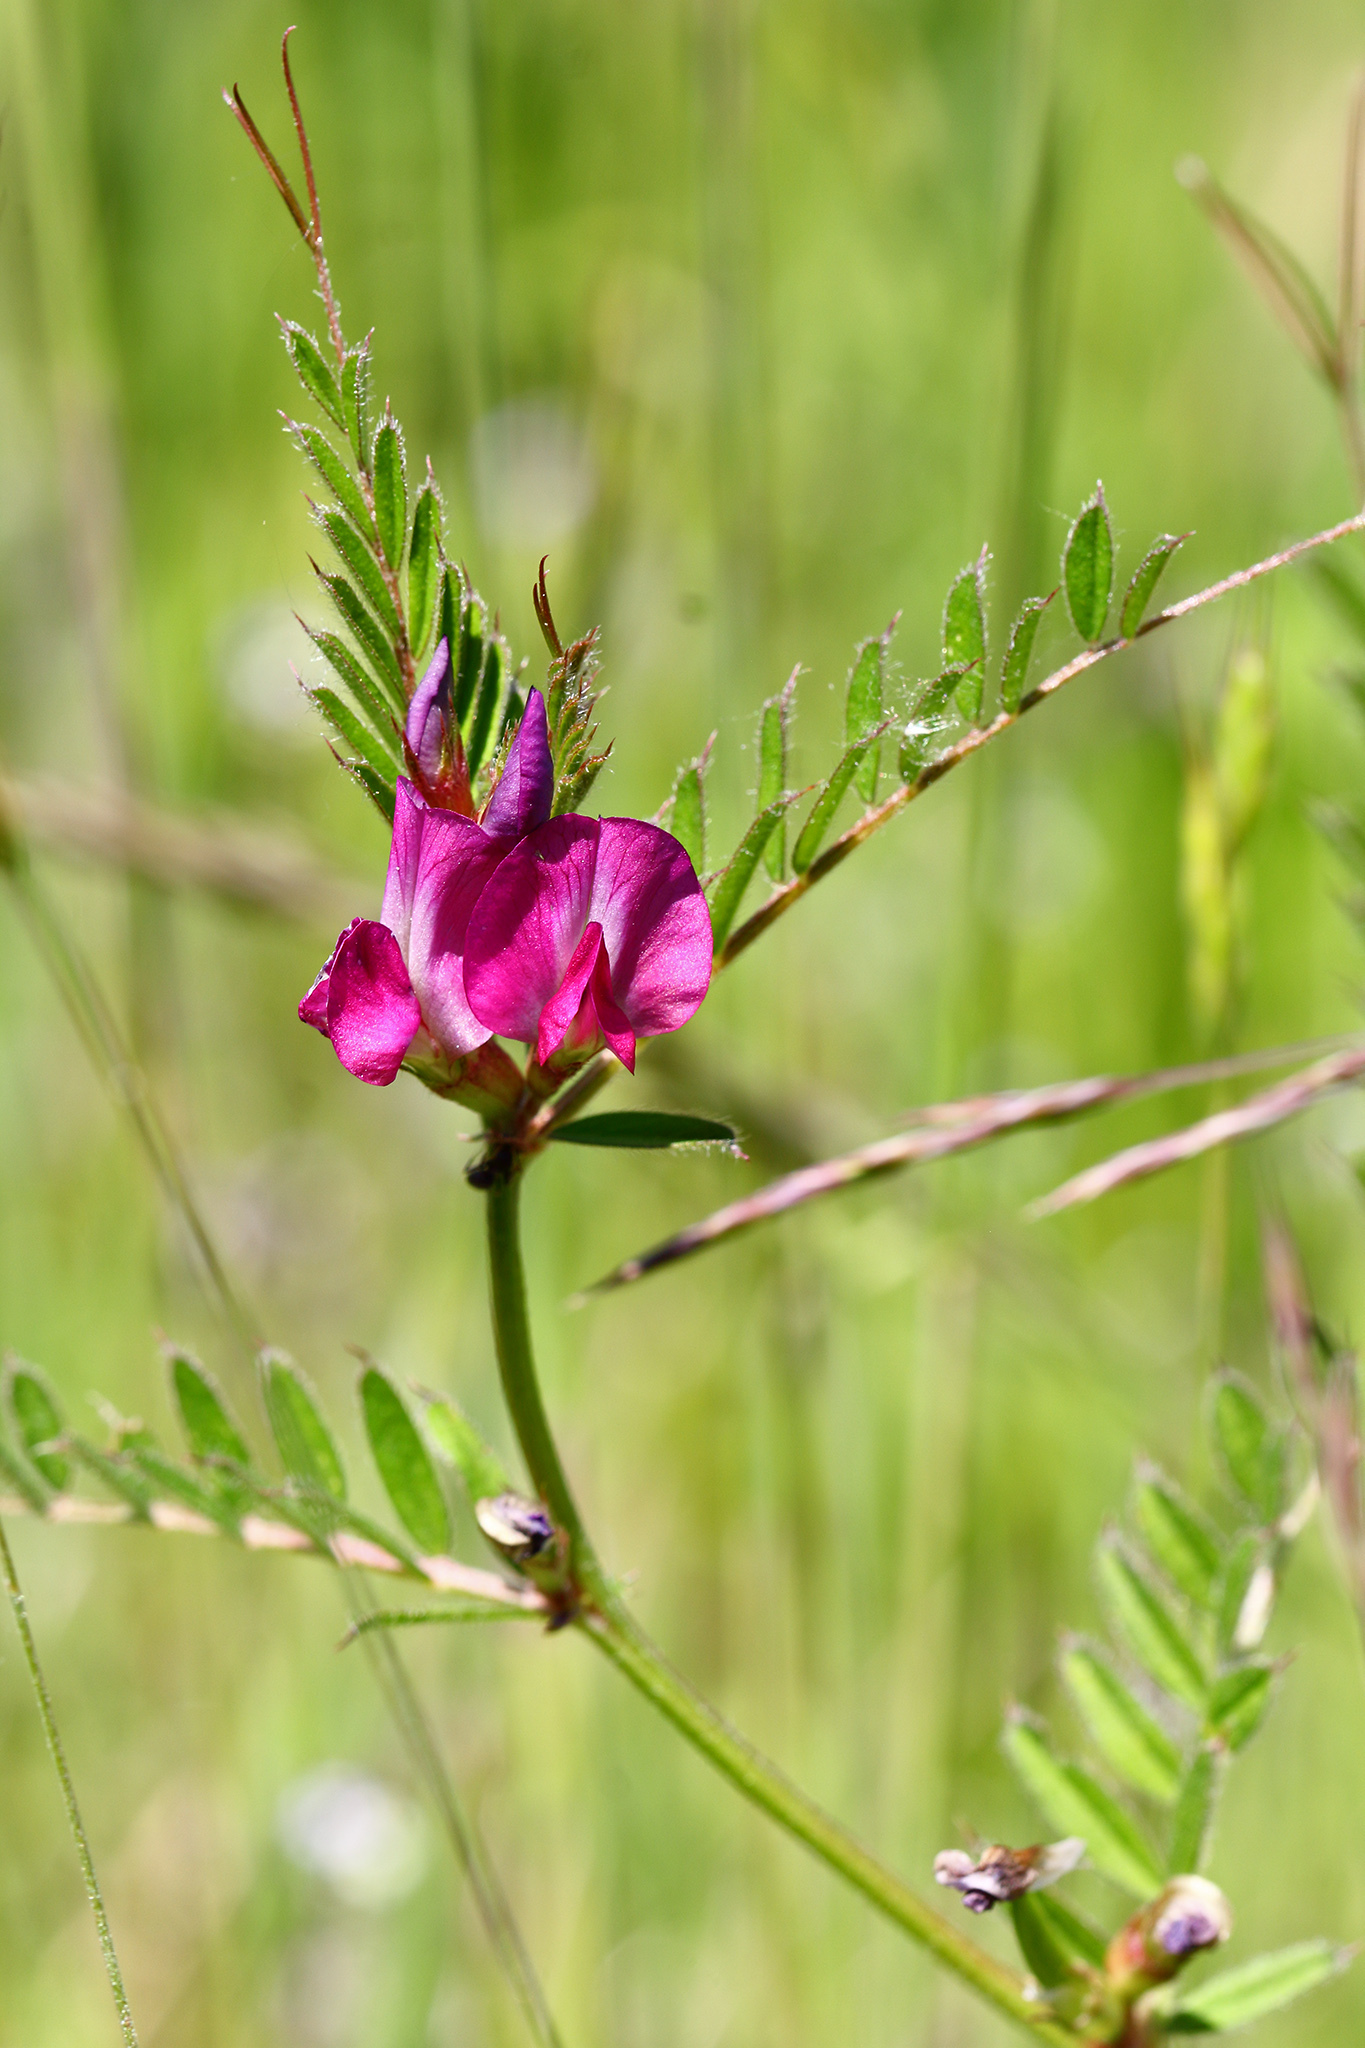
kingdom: Plantae
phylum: Tracheophyta
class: Magnoliopsida
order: Fabales
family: Fabaceae
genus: Vicia
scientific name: Vicia sativa
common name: Garden vetch
